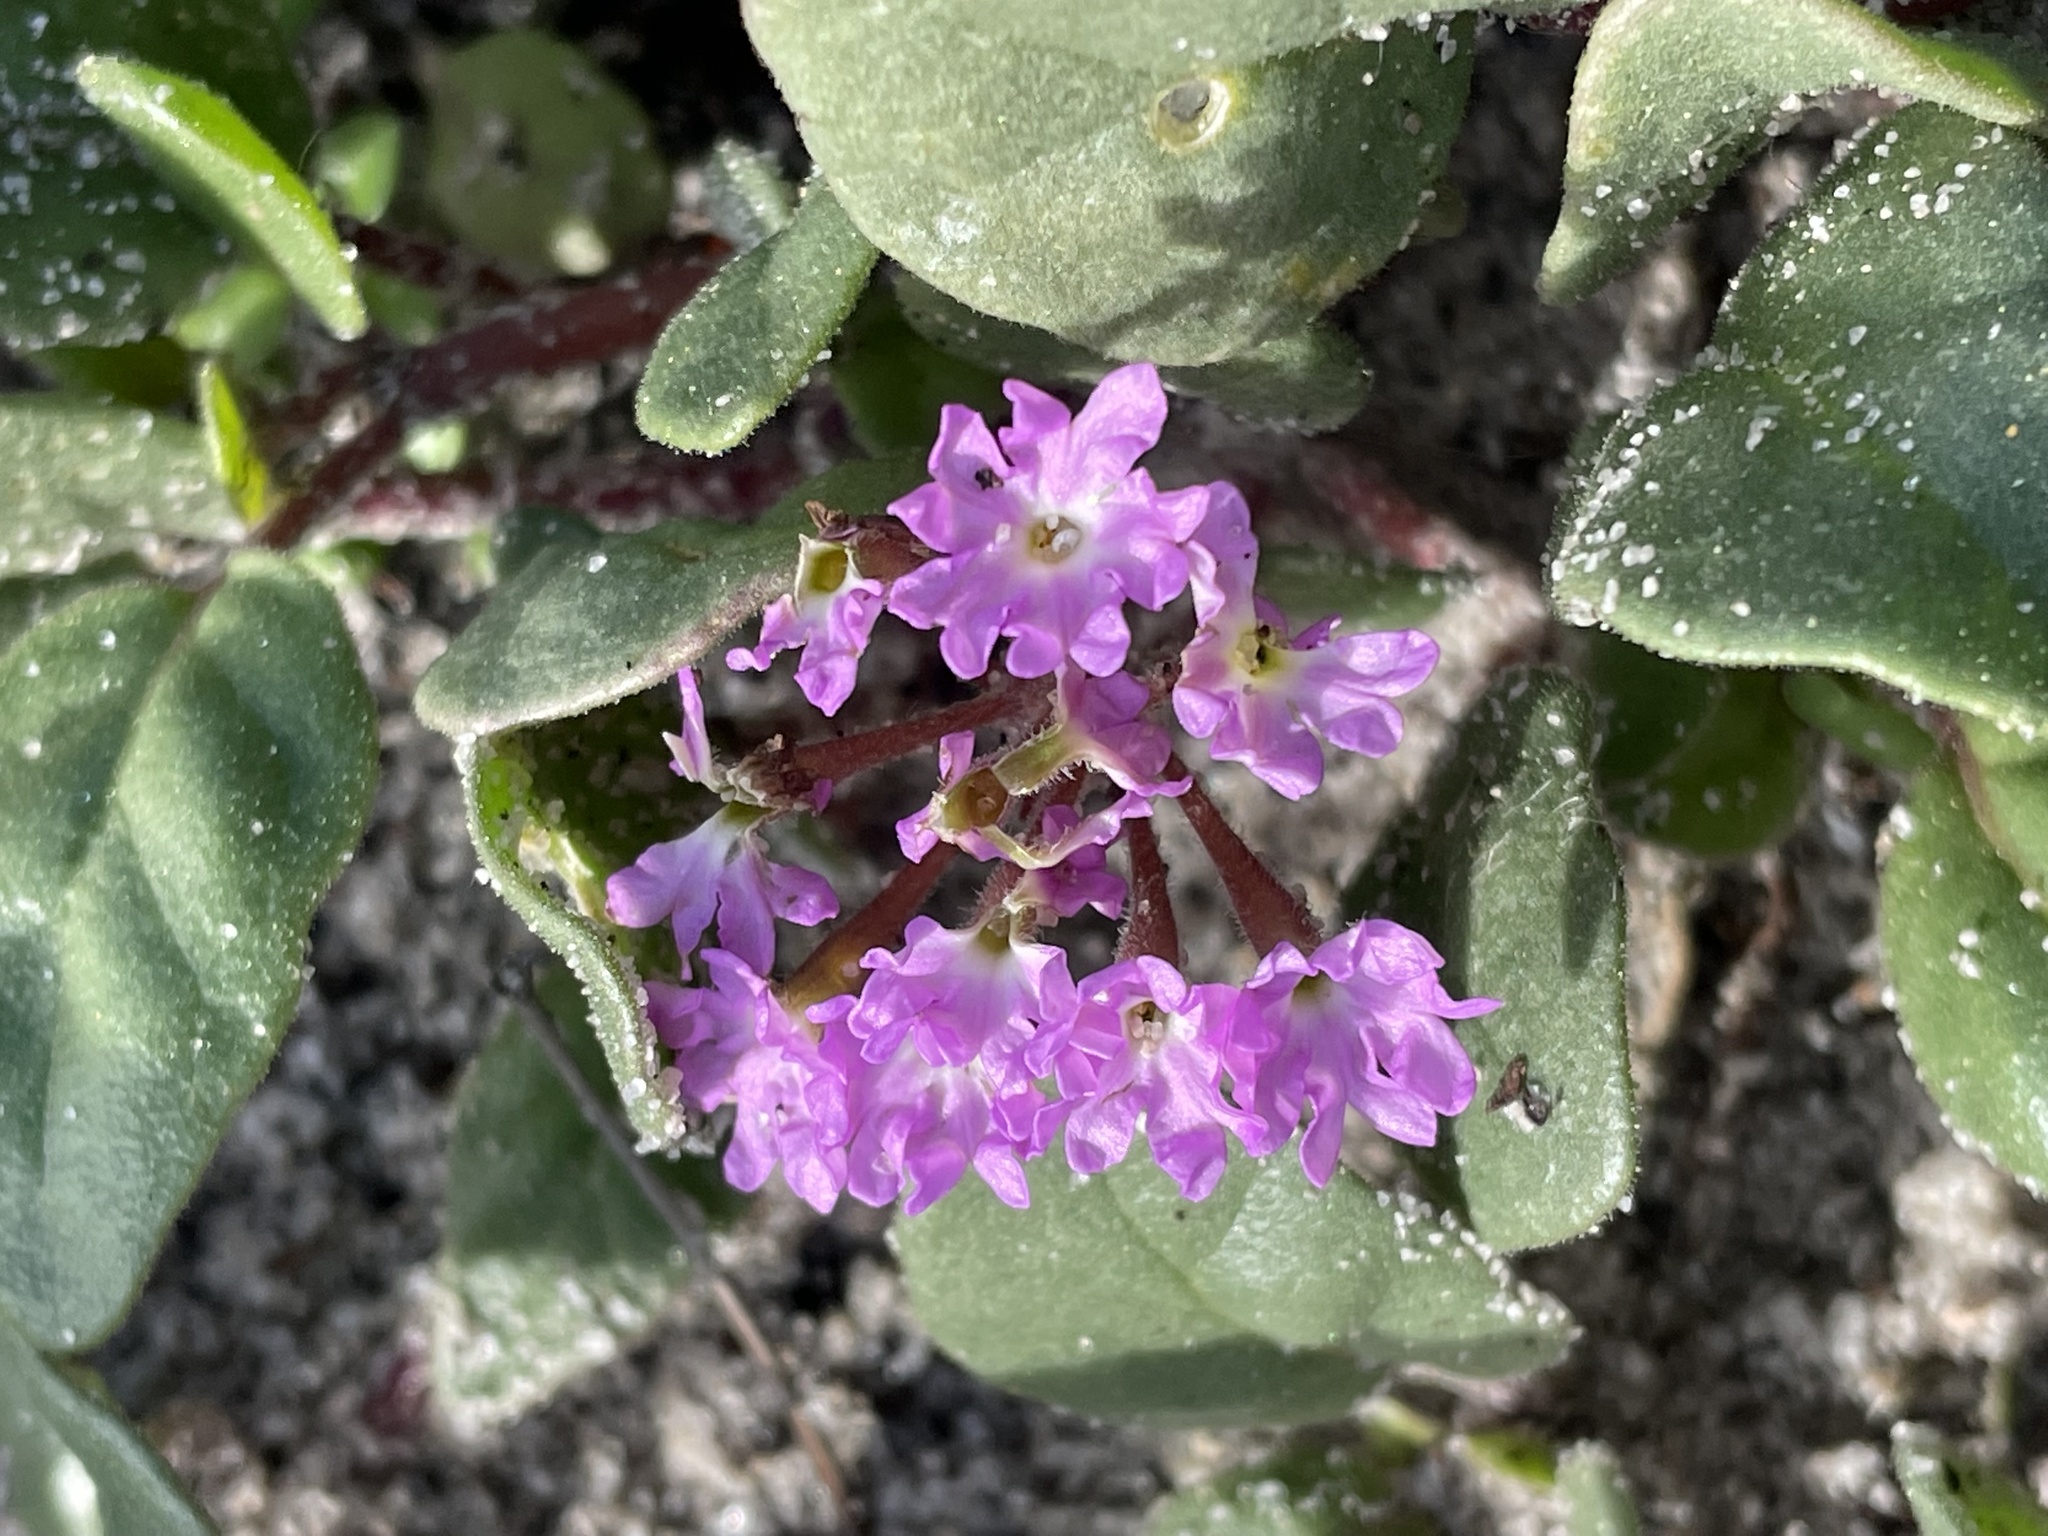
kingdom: Plantae
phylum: Tracheophyta
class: Magnoliopsida
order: Caryophyllales
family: Nyctaginaceae
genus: Abronia
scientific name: Abronia umbellata
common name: Sand-verbena
